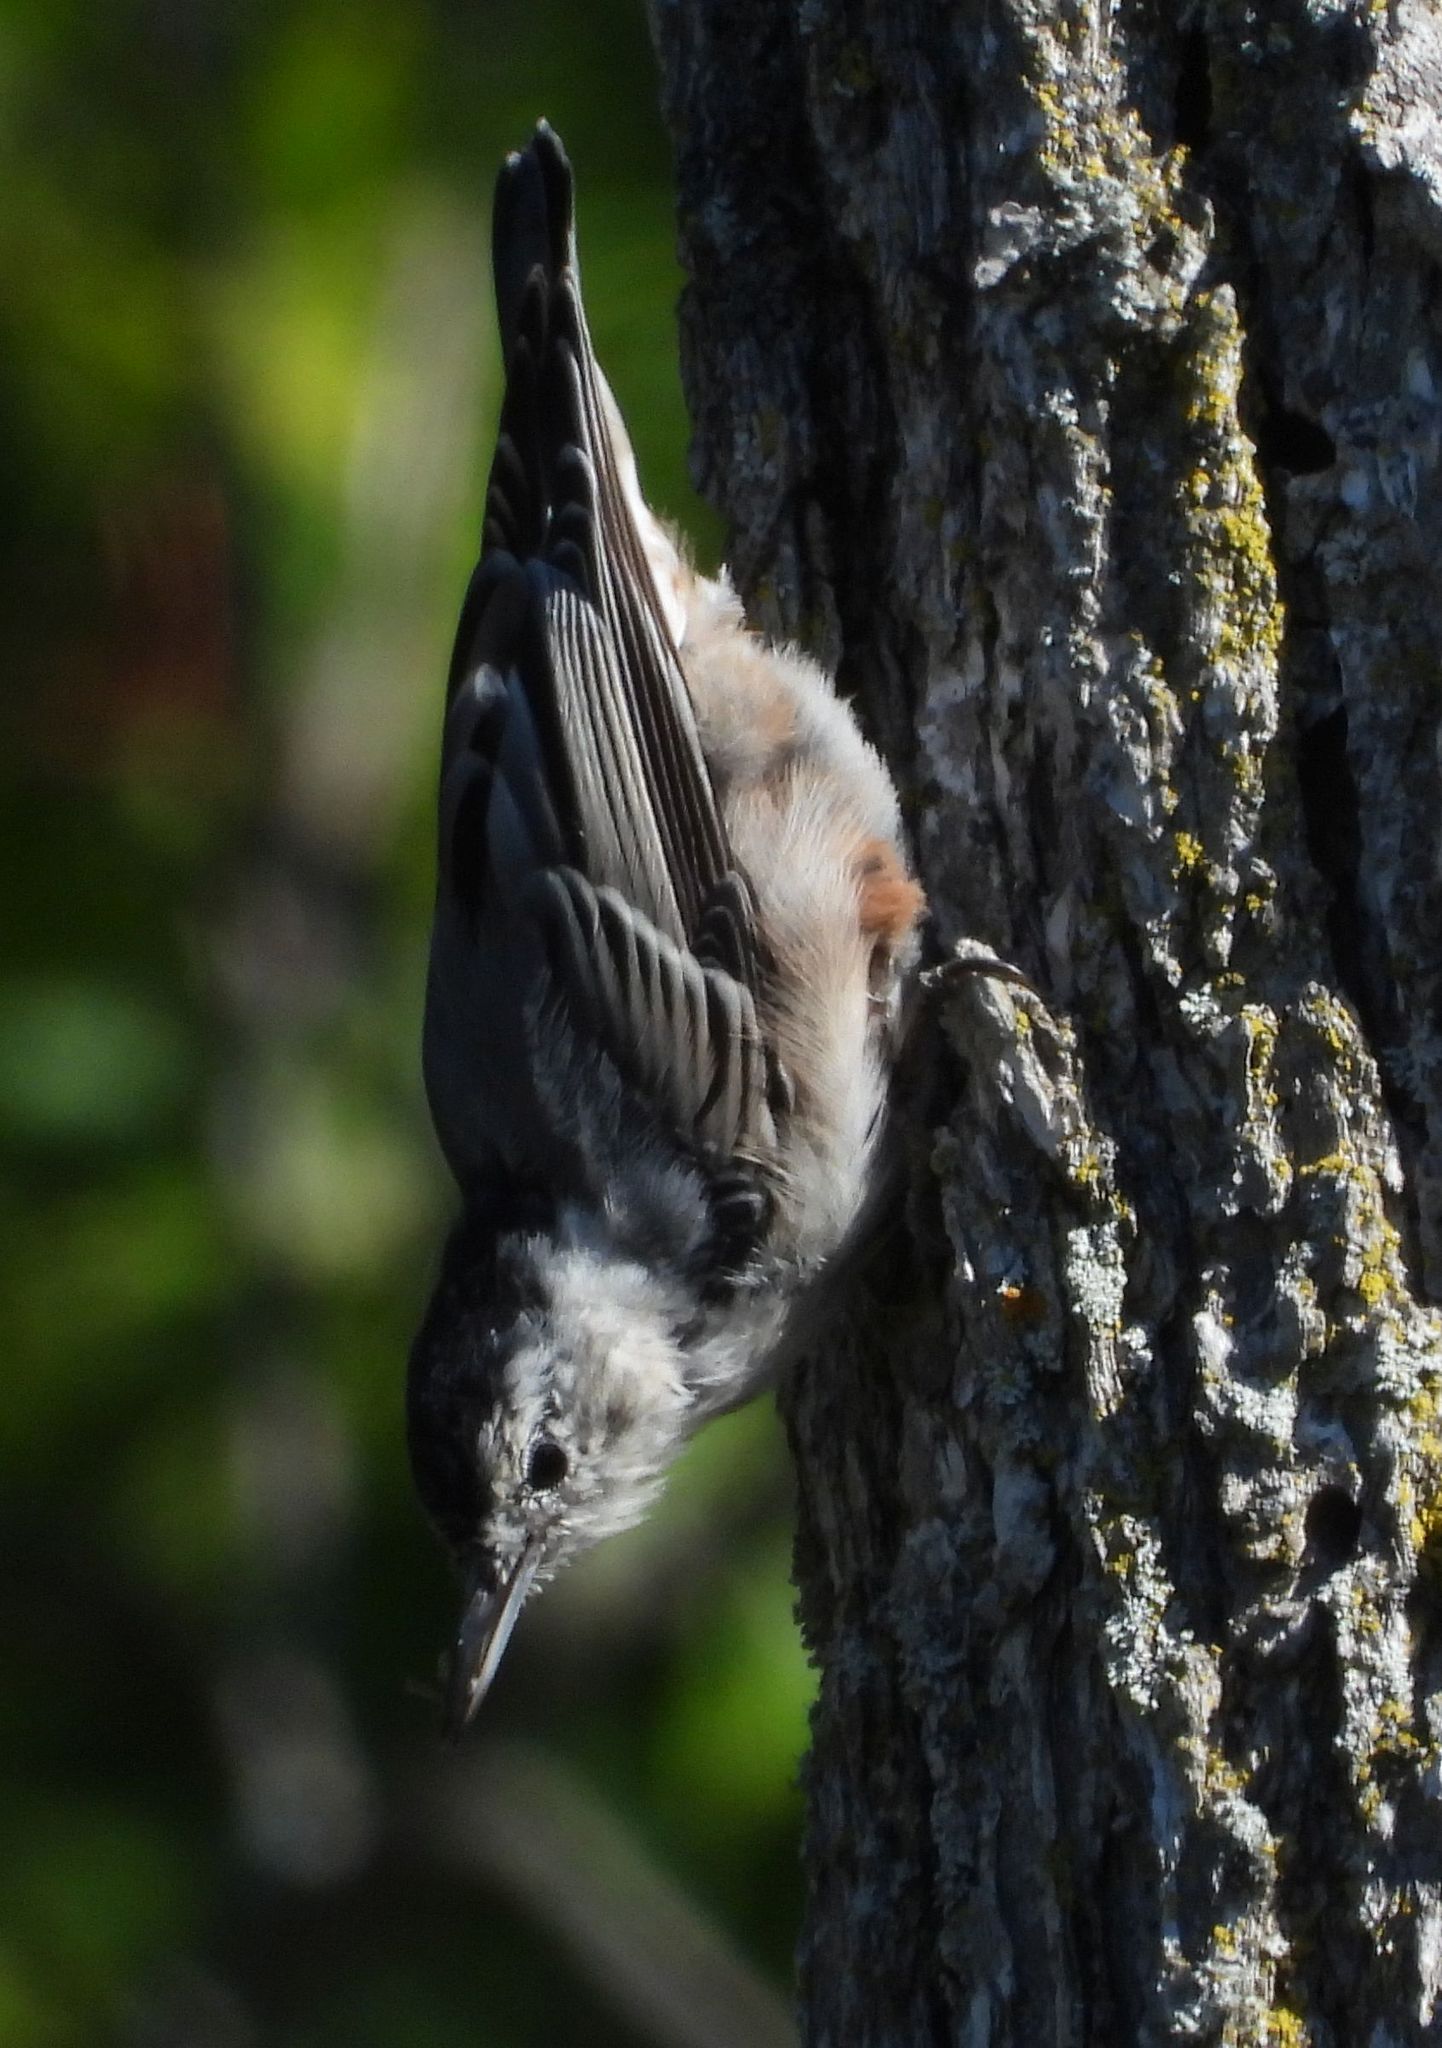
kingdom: Animalia
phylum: Chordata
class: Aves
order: Passeriformes
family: Sittidae
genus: Sitta
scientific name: Sitta carolinensis
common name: White-breasted nuthatch
